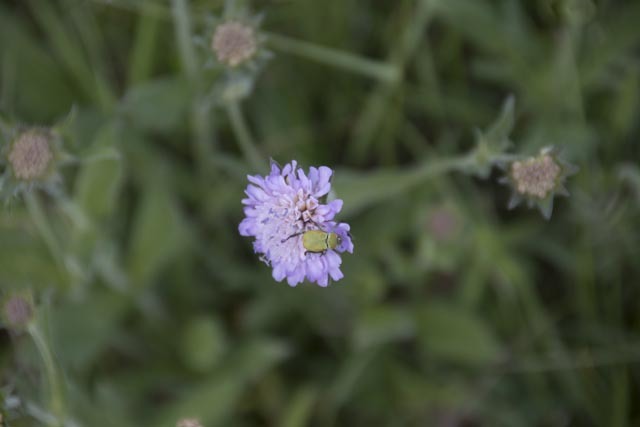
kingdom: Animalia
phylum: Arthropoda
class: Insecta
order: Coleoptera
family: Scarabaeidae
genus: Hoplia
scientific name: Hoplia argentea
